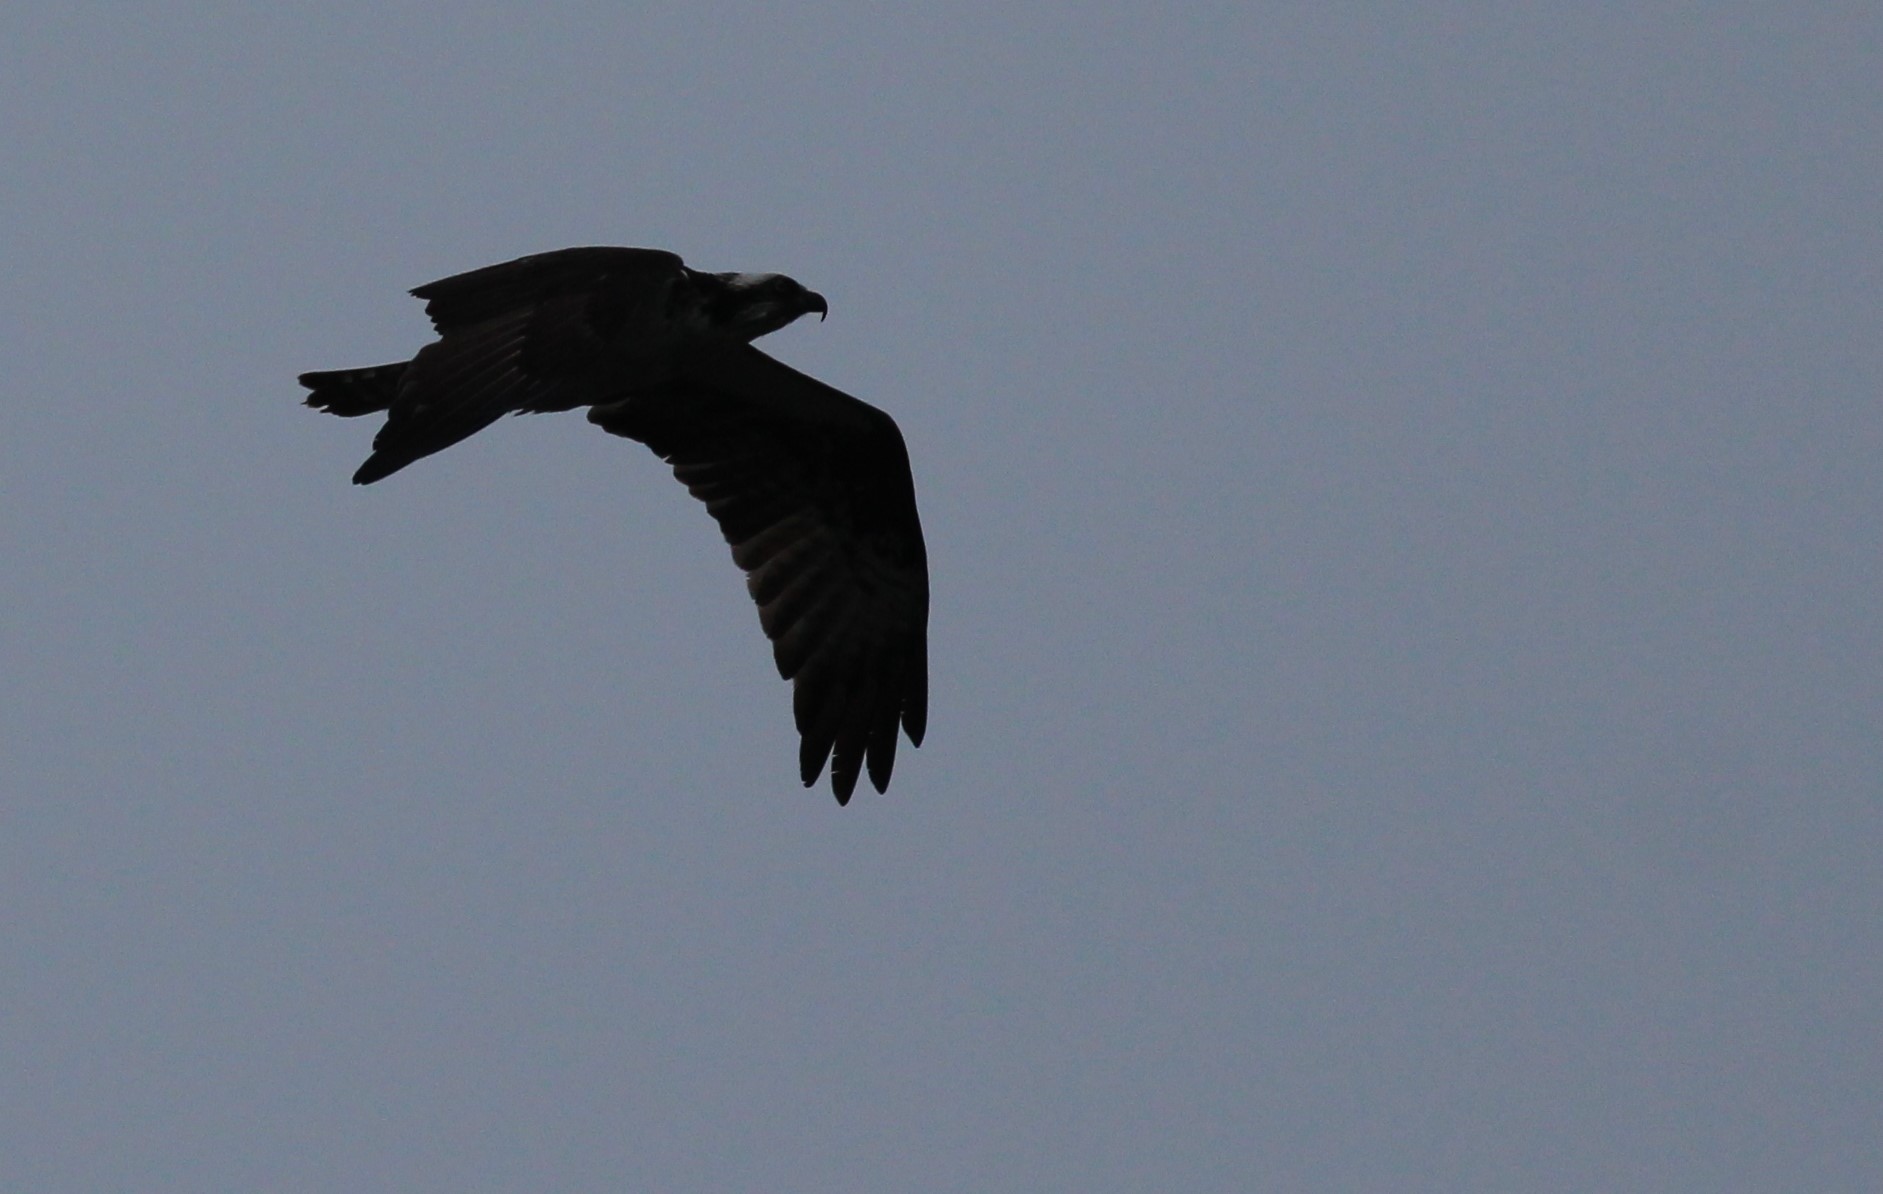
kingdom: Animalia
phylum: Chordata
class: Aves
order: Accipitriformes
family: Pandionidae
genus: Pandion
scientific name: Pandion haliaetus
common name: Osprey
